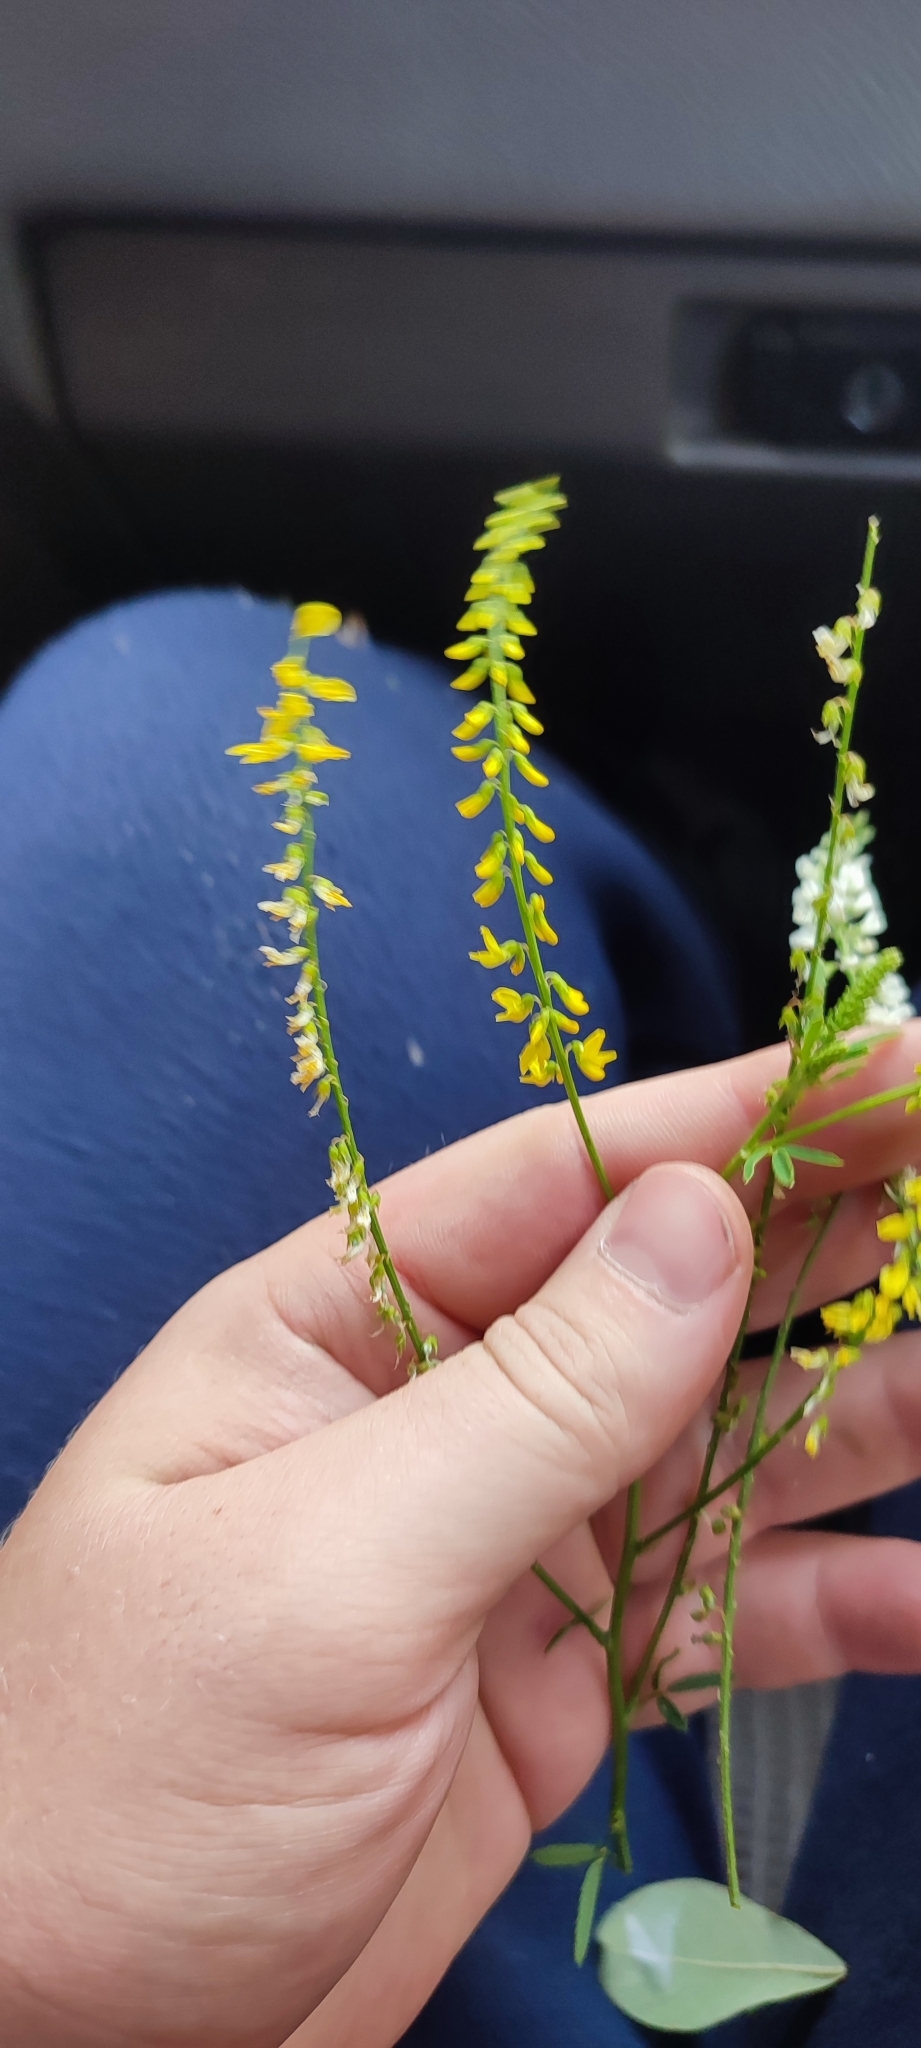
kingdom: Plantae
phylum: Tracheophyta
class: Magnoliopsida
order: Fabales
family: Fabaceae
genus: Melilotus
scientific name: Melilotus officinalis
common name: Sweetclover
